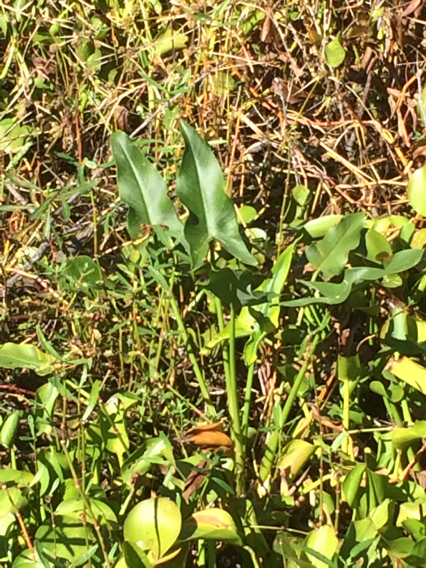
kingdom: Plantae
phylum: Tracheophyta
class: Liliopsida
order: Alismatales
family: Araceae
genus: Peltandra
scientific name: Peltandra virginica
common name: Arrow arum
